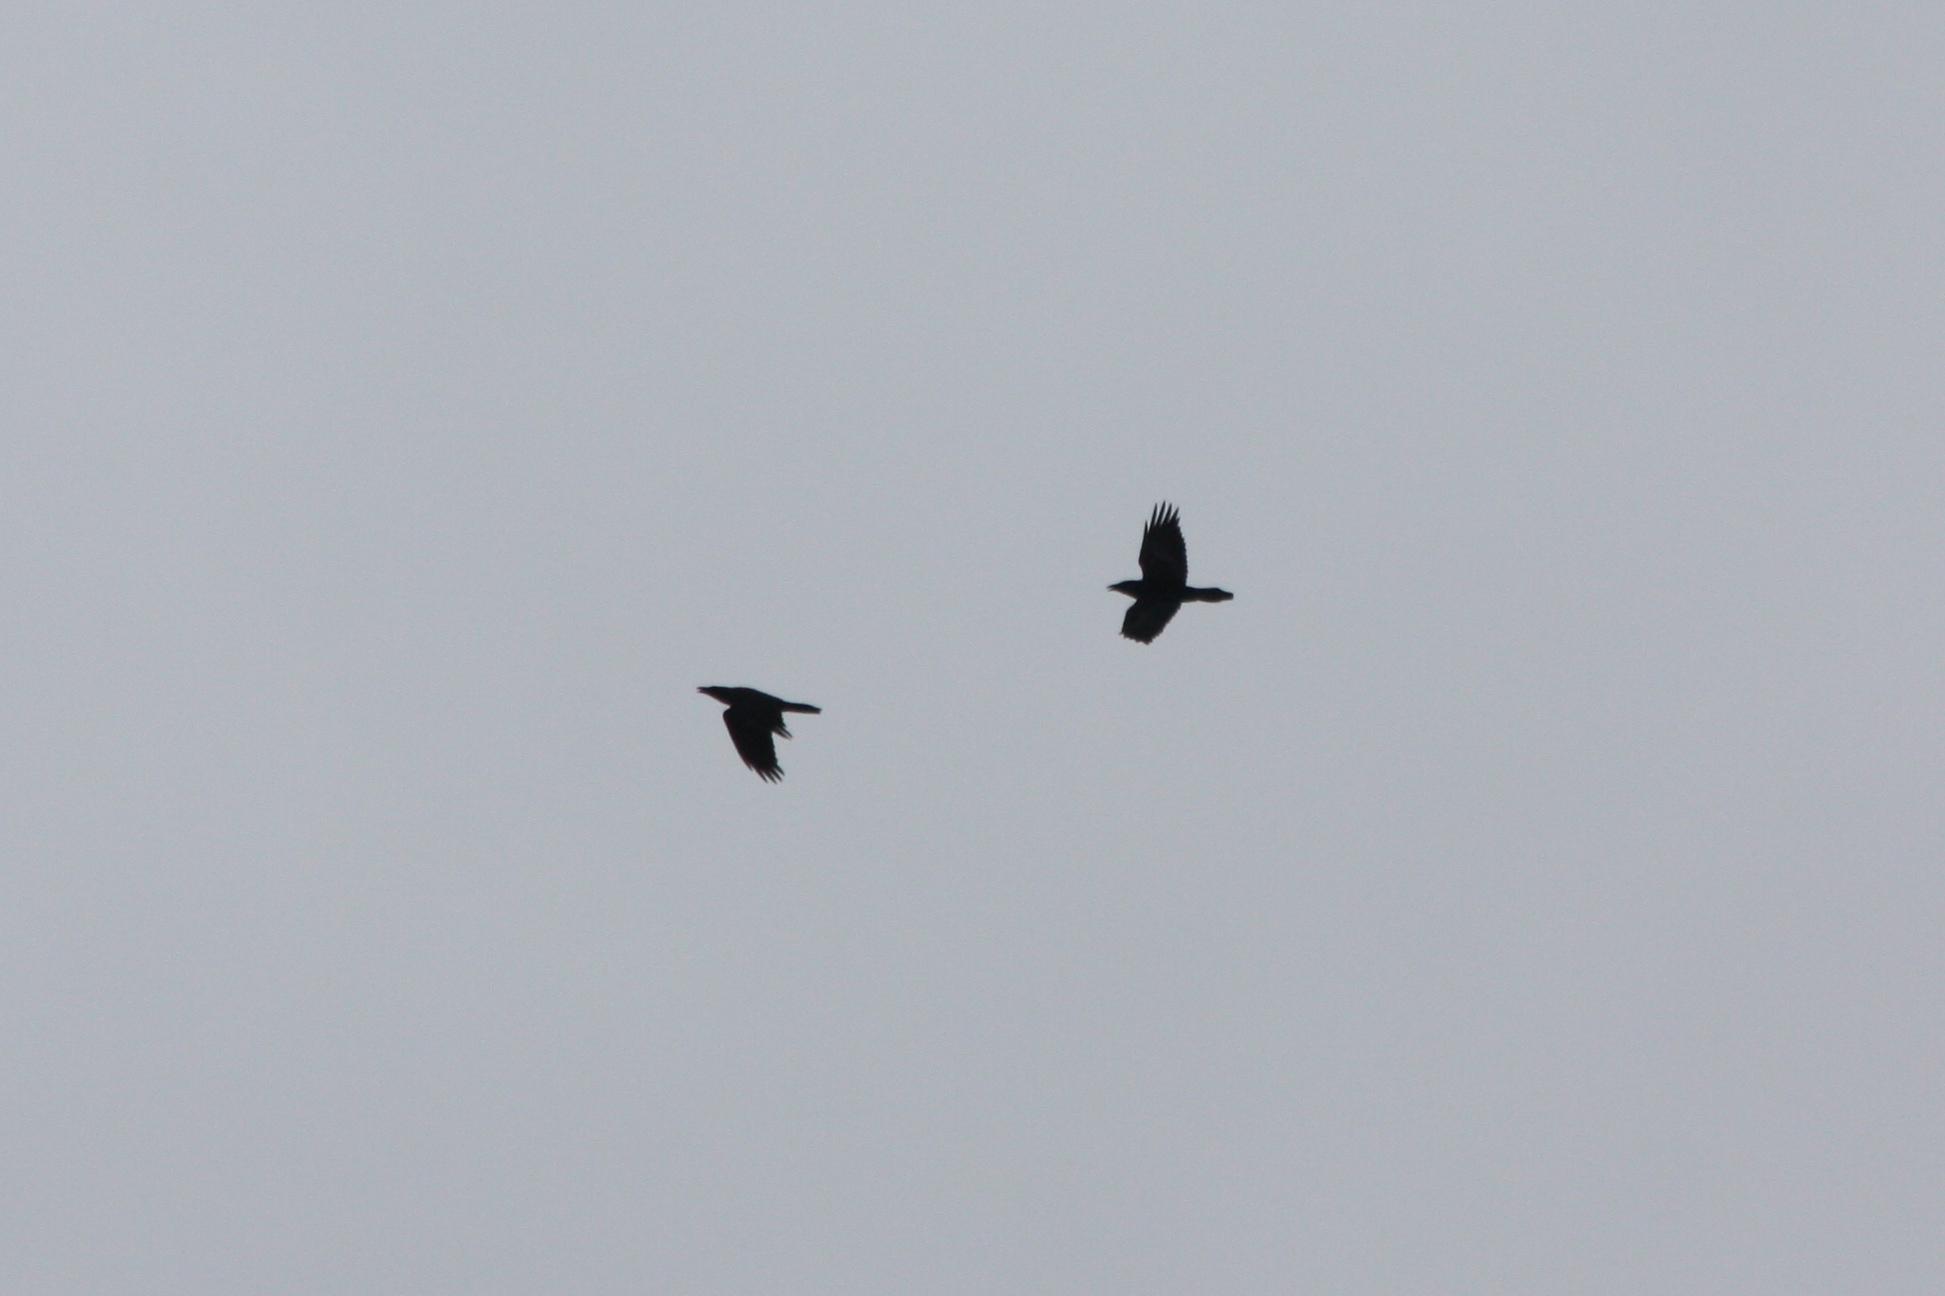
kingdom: Animalia
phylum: Chordata
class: Aves
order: Passeriformes
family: Corvidae
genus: Corvus
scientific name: Corvus corax
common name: Common raven
